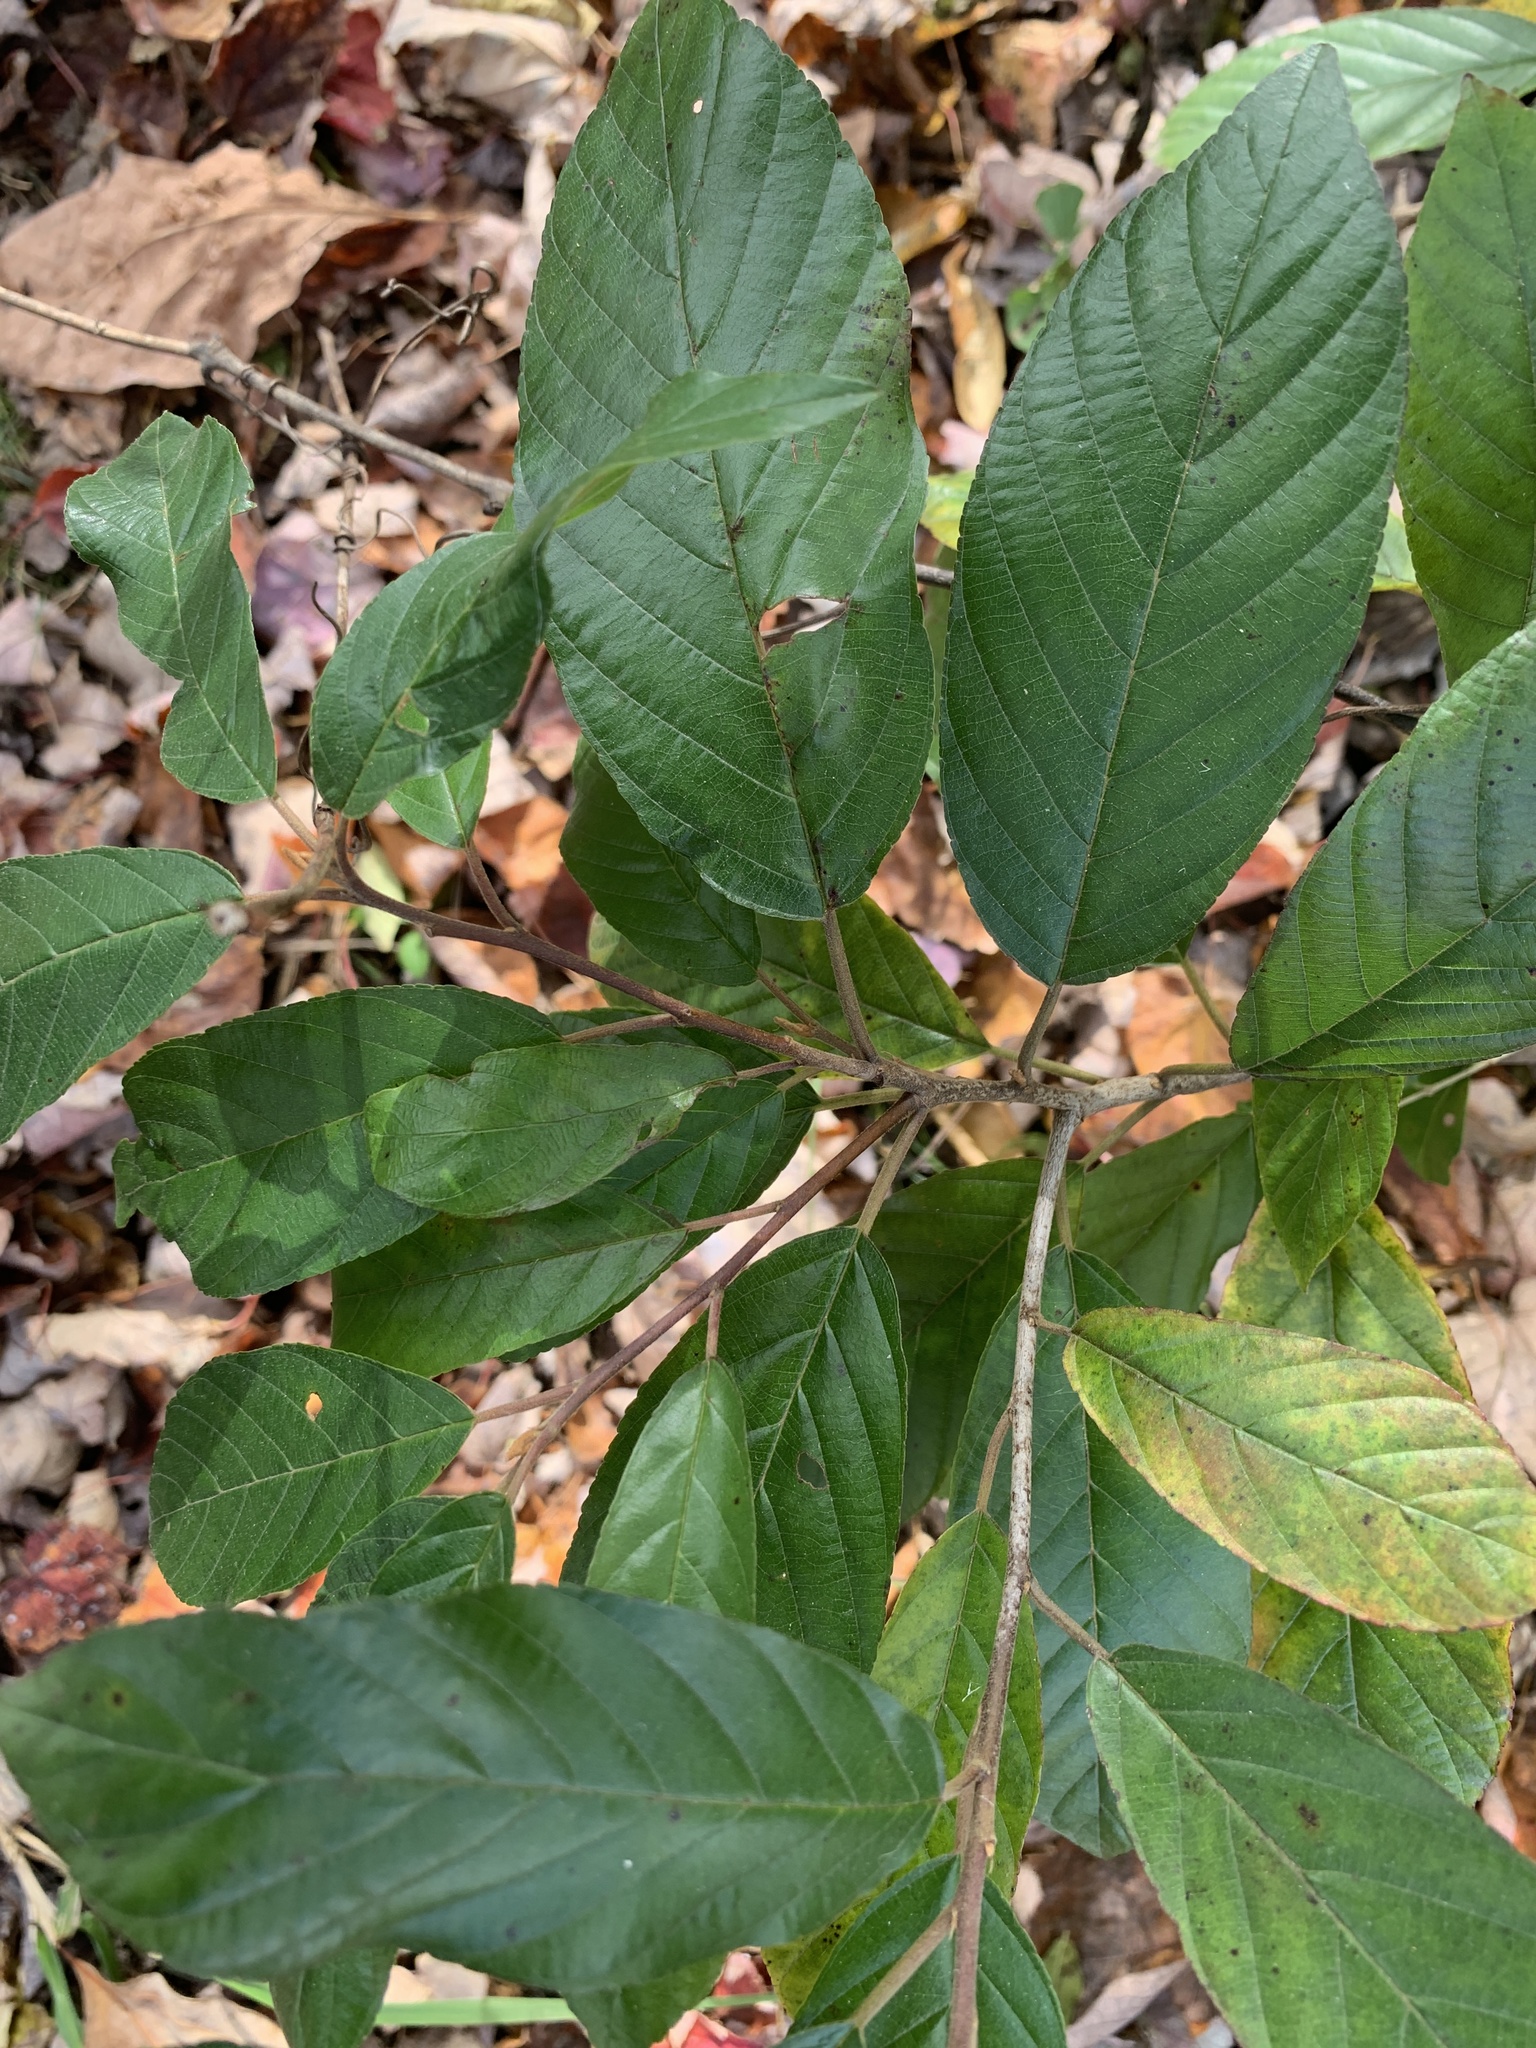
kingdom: Plantae
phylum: Tracheophyta
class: Magnoliopsida
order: Rosales
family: Rhamnaceae
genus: Frangula
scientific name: Frangula caroliniana
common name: Carolina buckthorn
